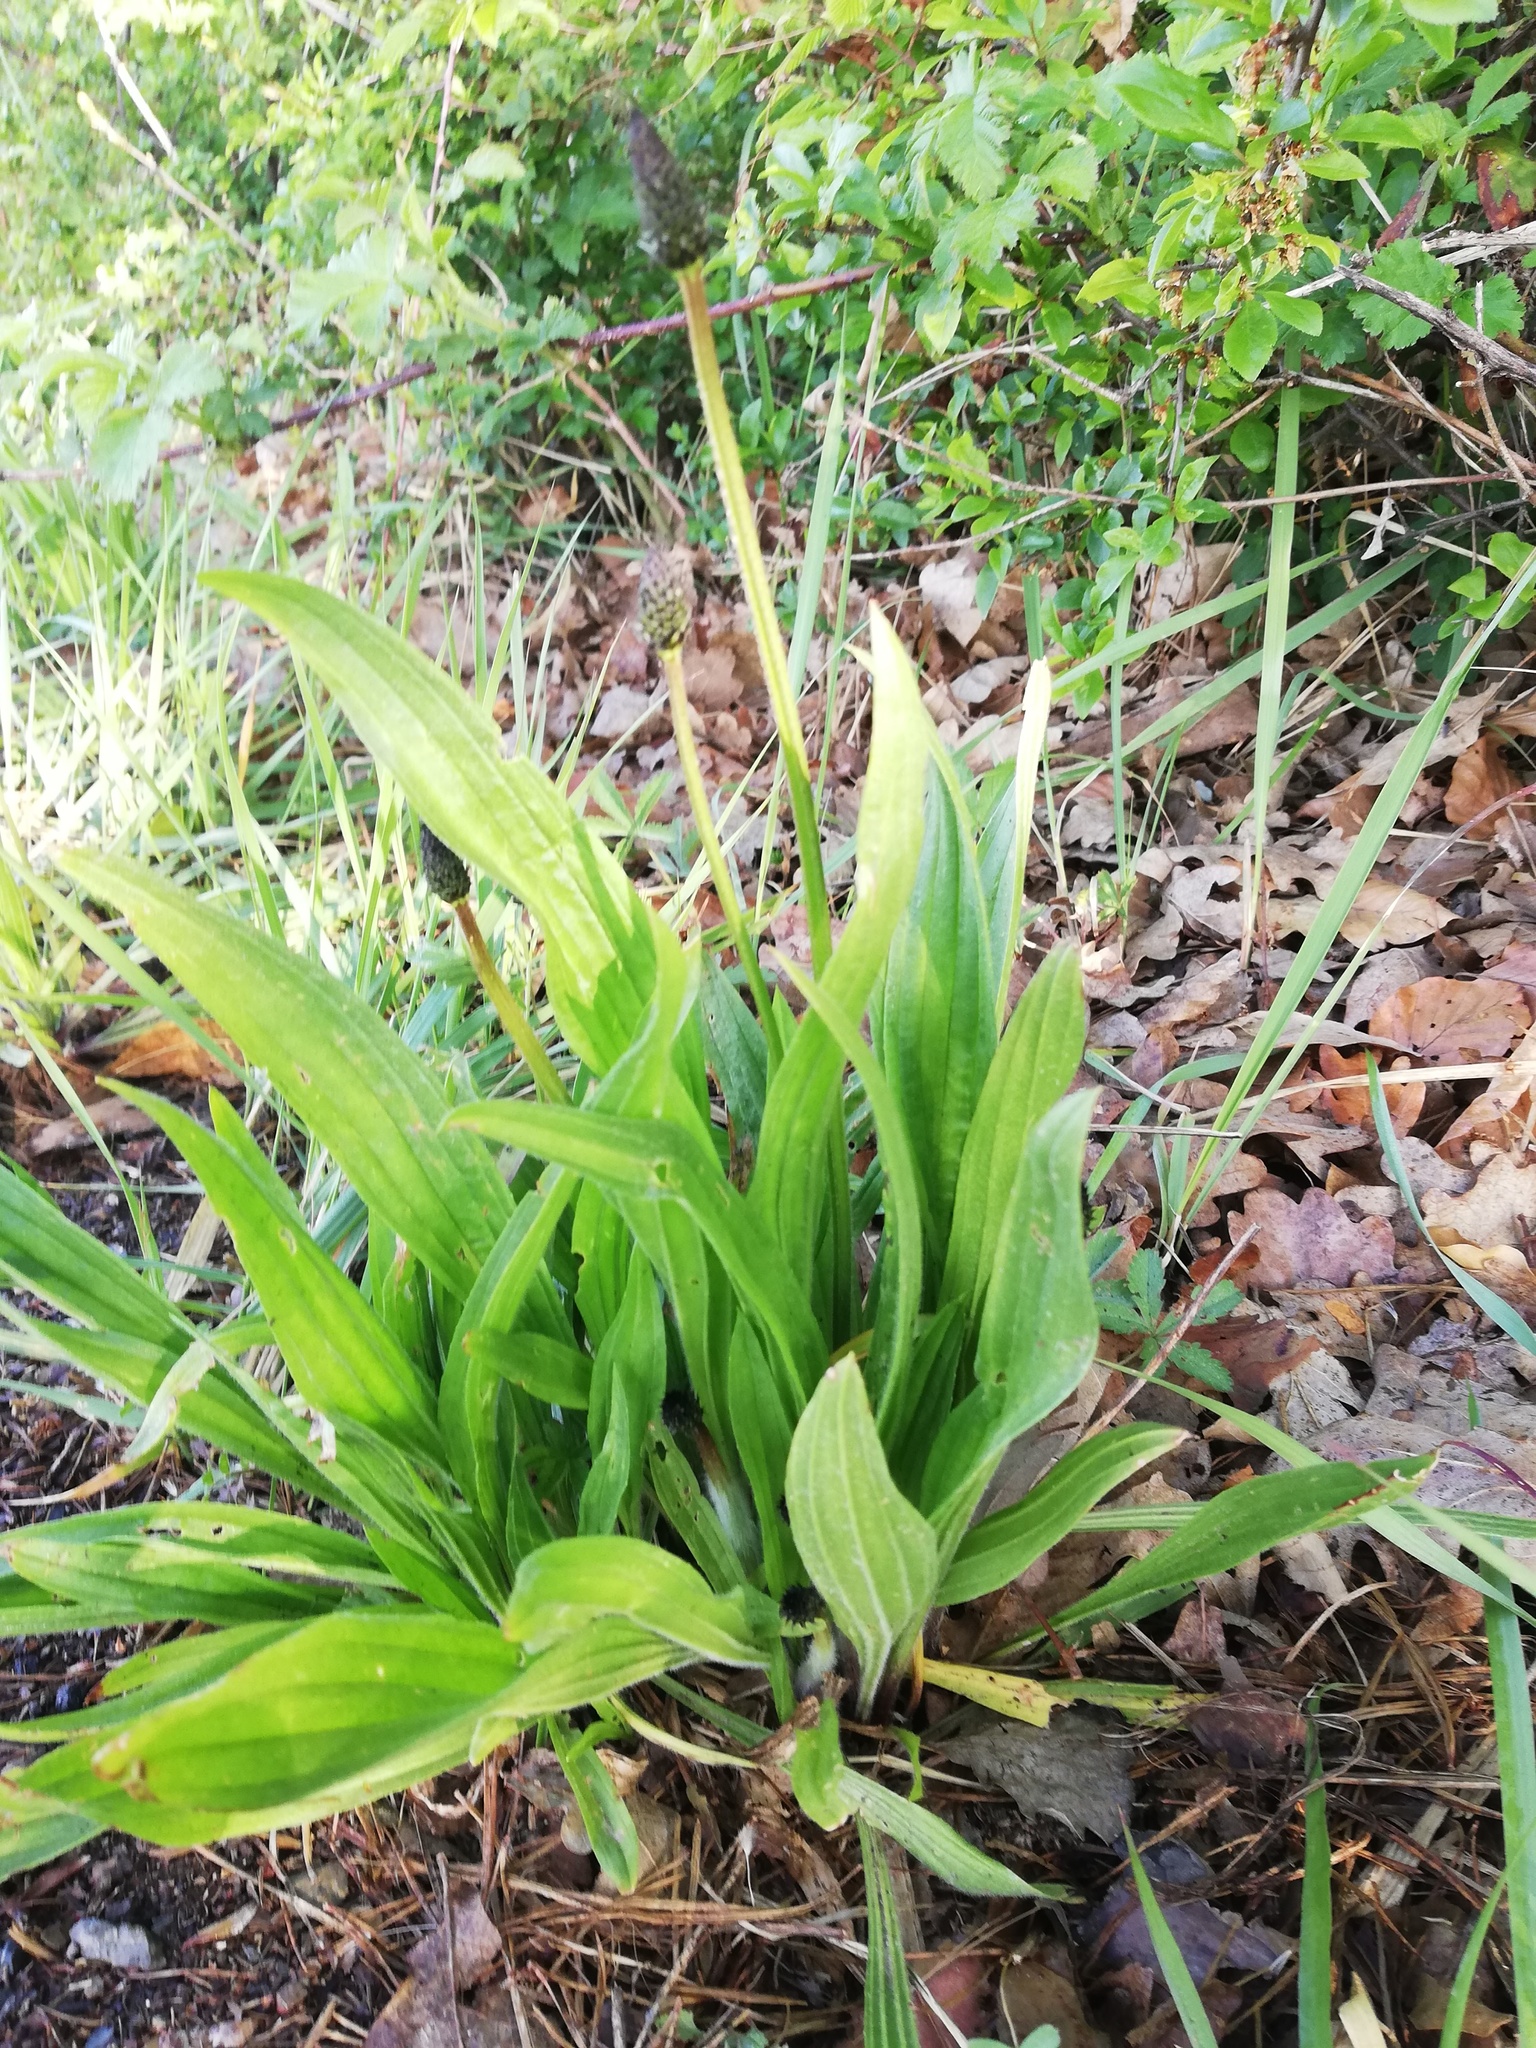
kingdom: Plantae
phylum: Tracheophyta
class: Magnoliopsida
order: Lamiales
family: Plantaginaceae
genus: Plantago
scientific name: Plantago lanceolata
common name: Ribwort plantain
